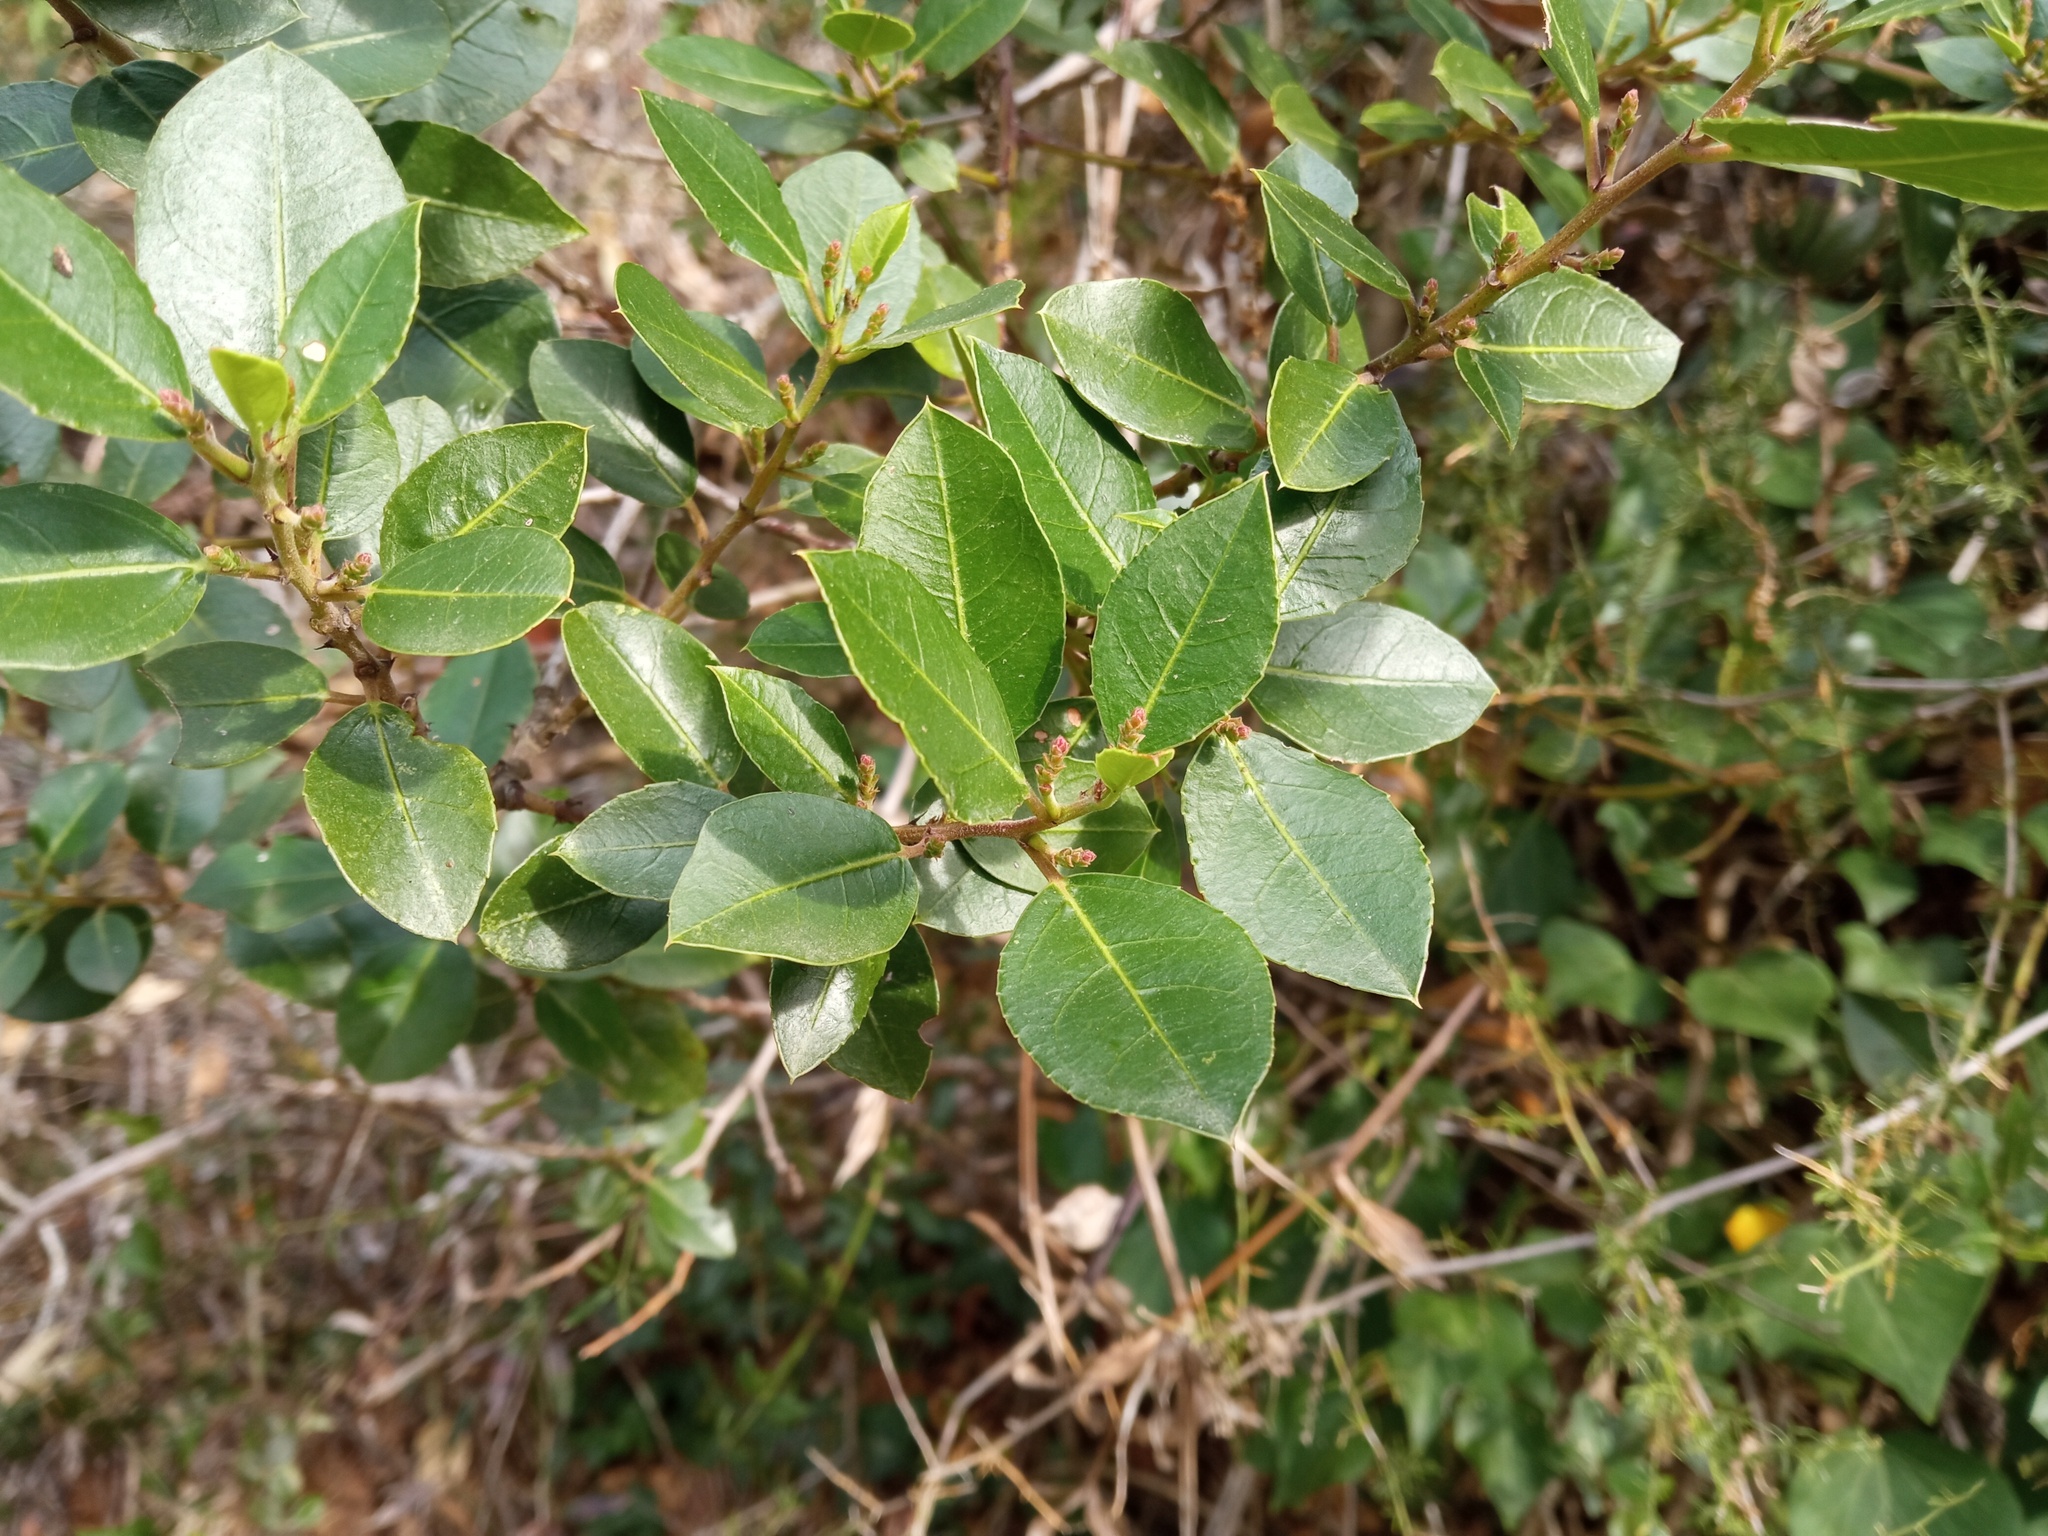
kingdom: Plantae
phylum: Tracheophyta
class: Magnoliopsida
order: Rosales
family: Rhamnaceae
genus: Rhamnus
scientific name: Rhamnus alaternus
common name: Mediterranean buckthorn
